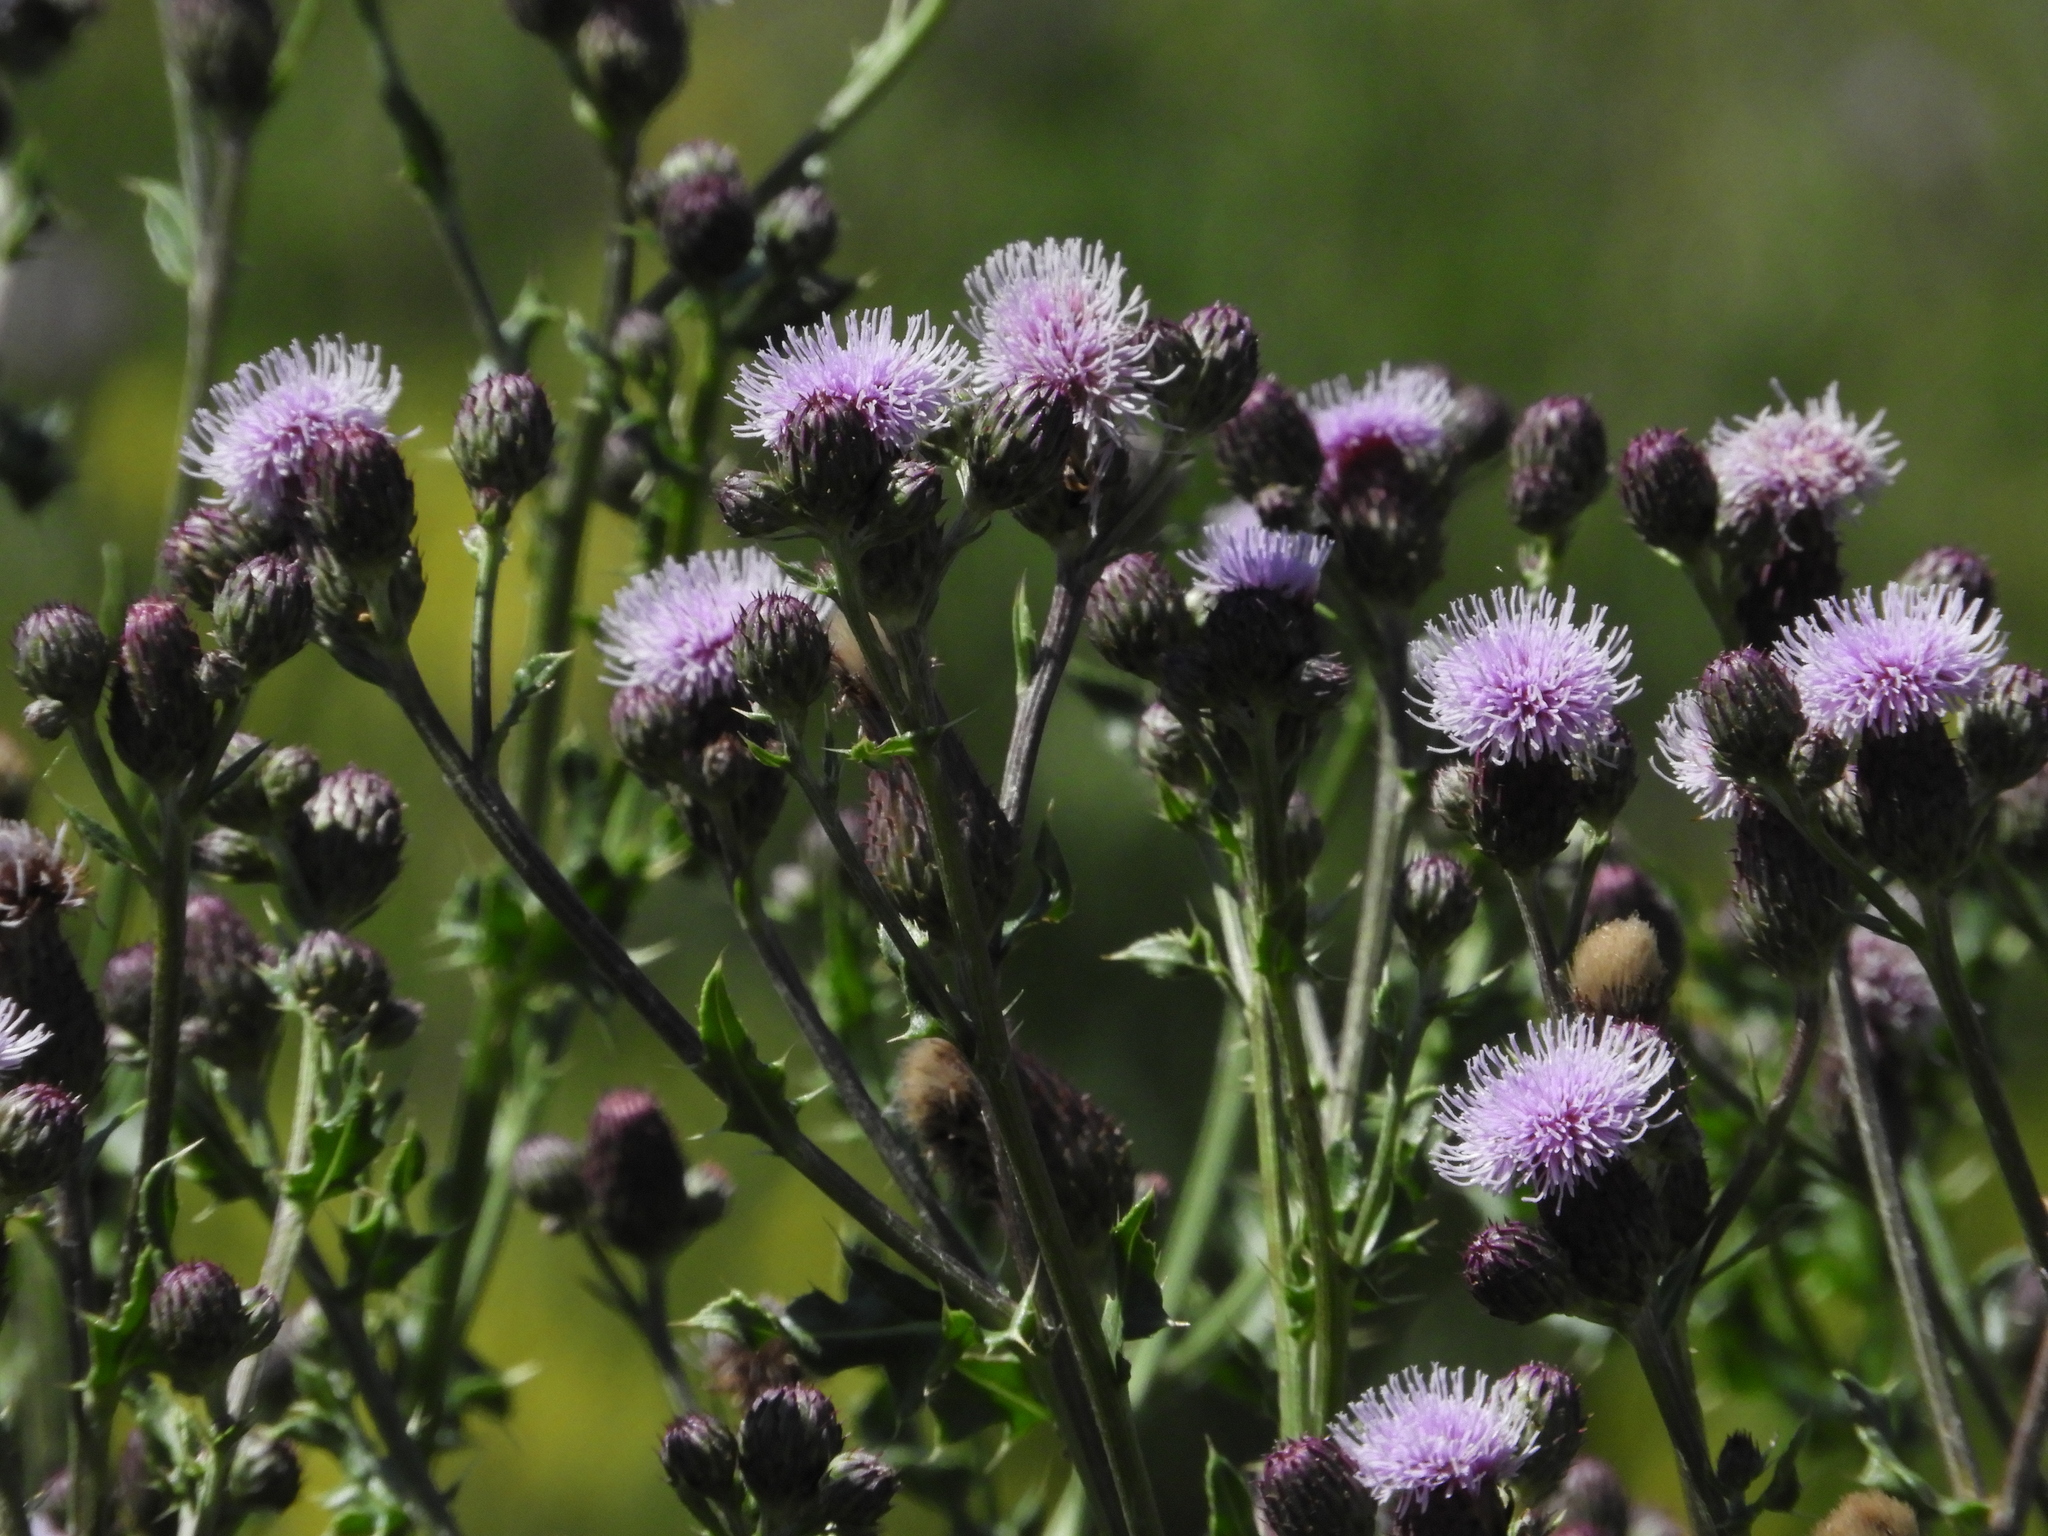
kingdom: Plantae
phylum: Tracheophyta
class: Magnoliopsida
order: Asterales
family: Asteraceae
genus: Cirsium
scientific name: Cirsium arvense
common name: Creeping thistle
